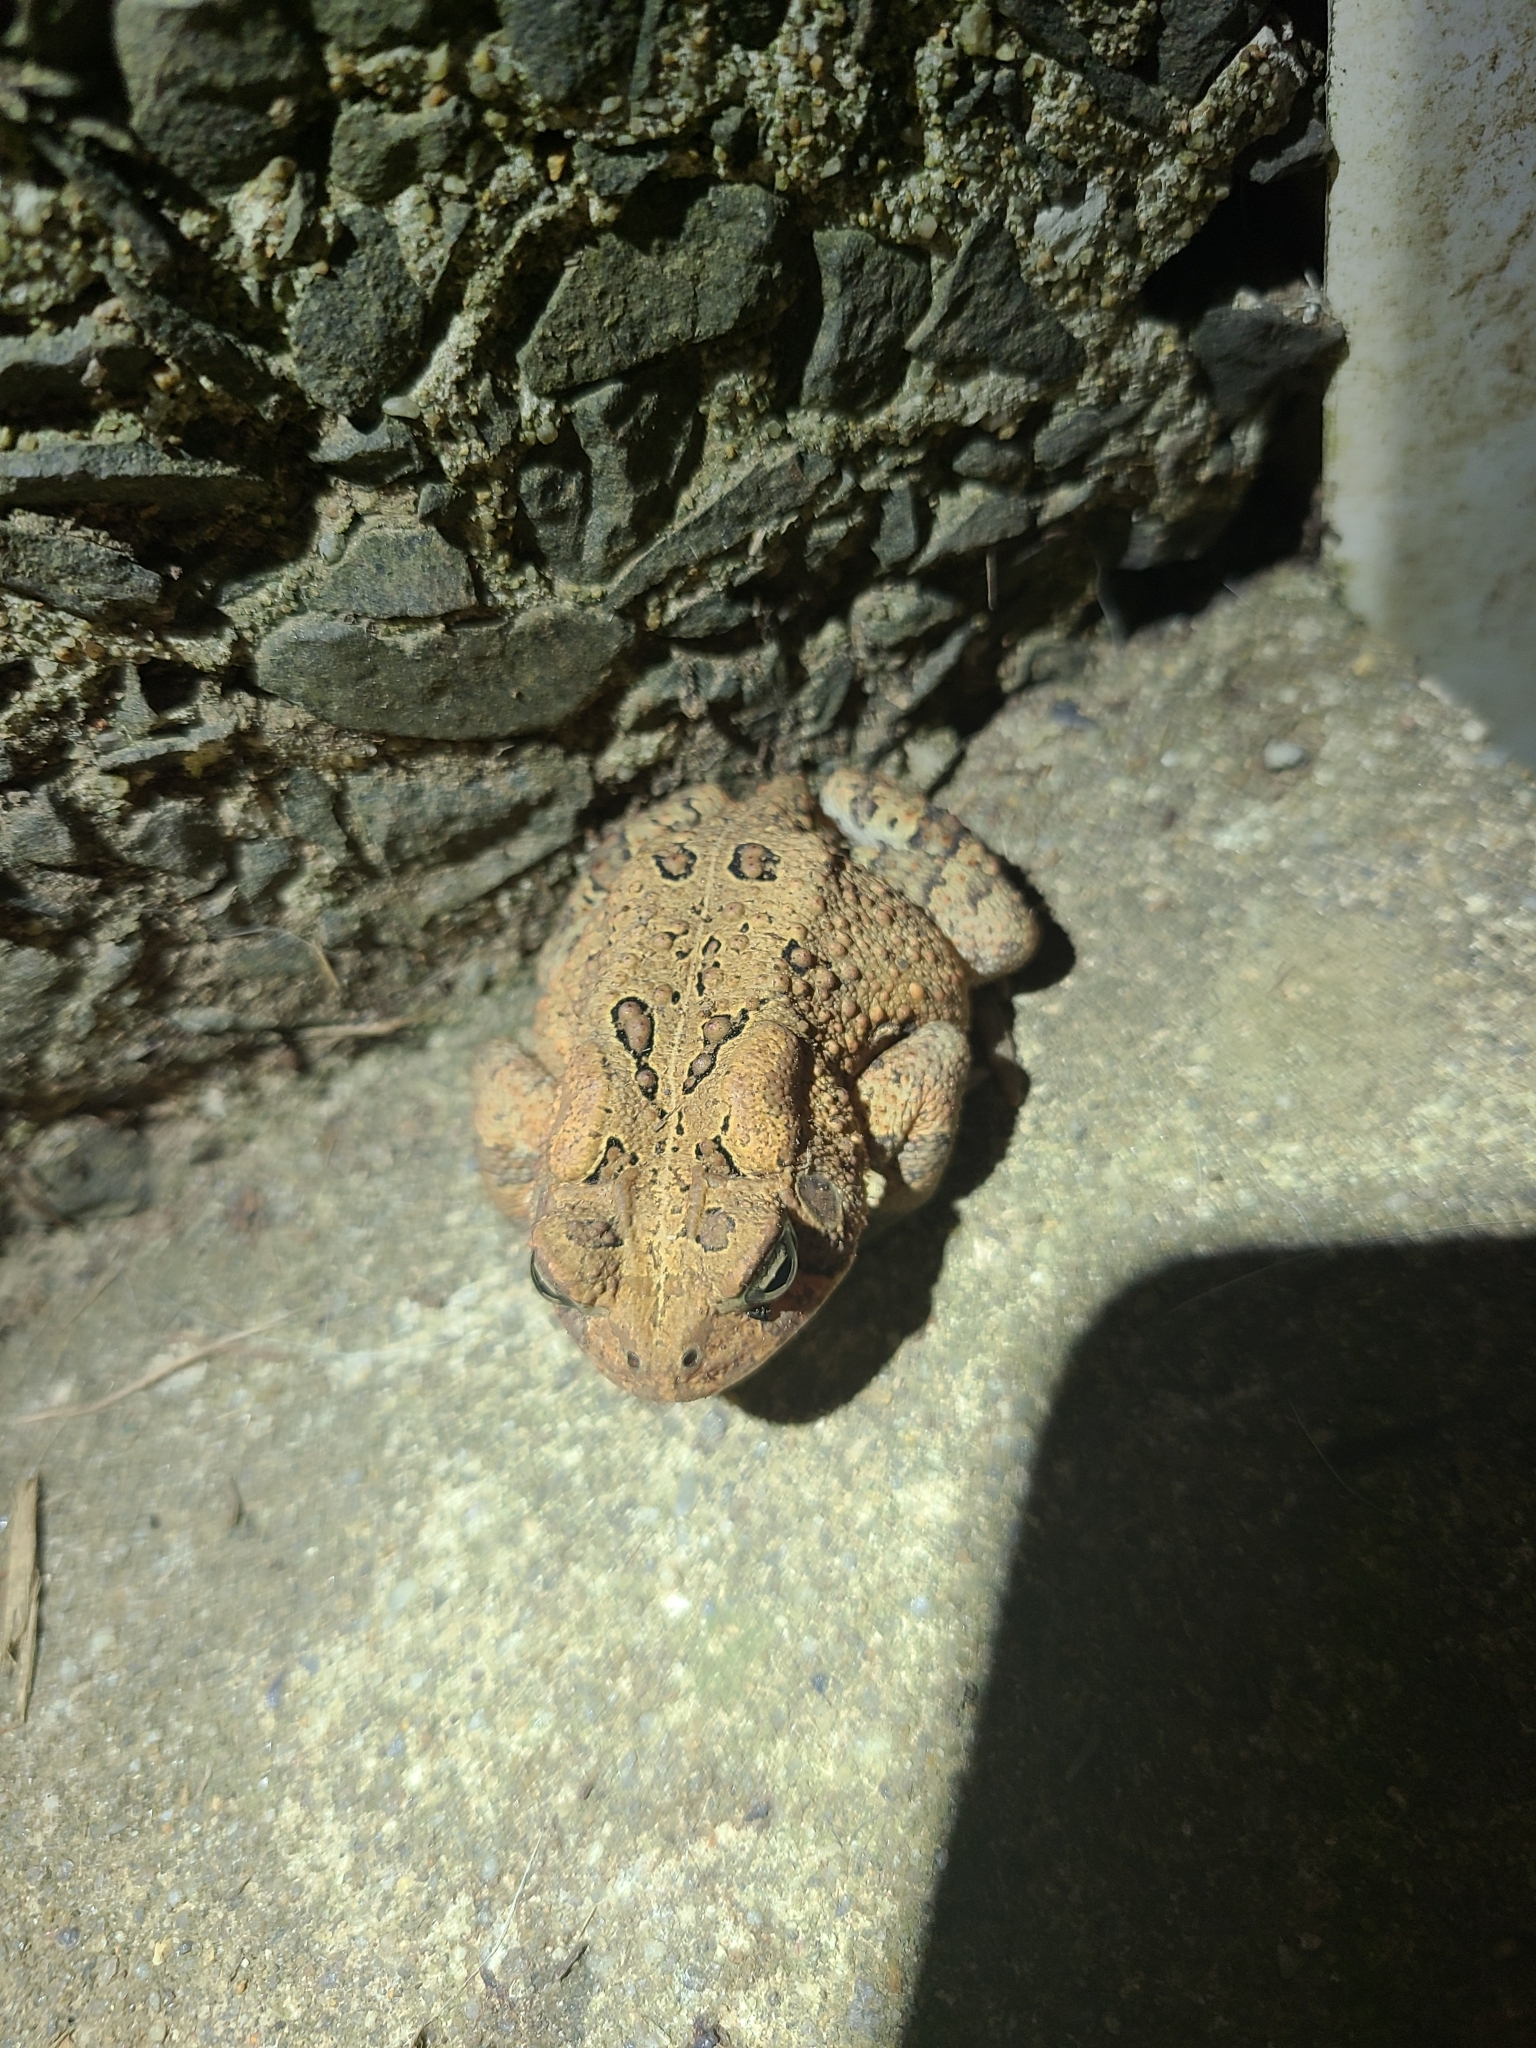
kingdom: Animalia
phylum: Chordata
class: Amphibia
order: Anura
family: Bufonidae
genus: Anaxyrus
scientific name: Anaxyrus americanus
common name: American toad
